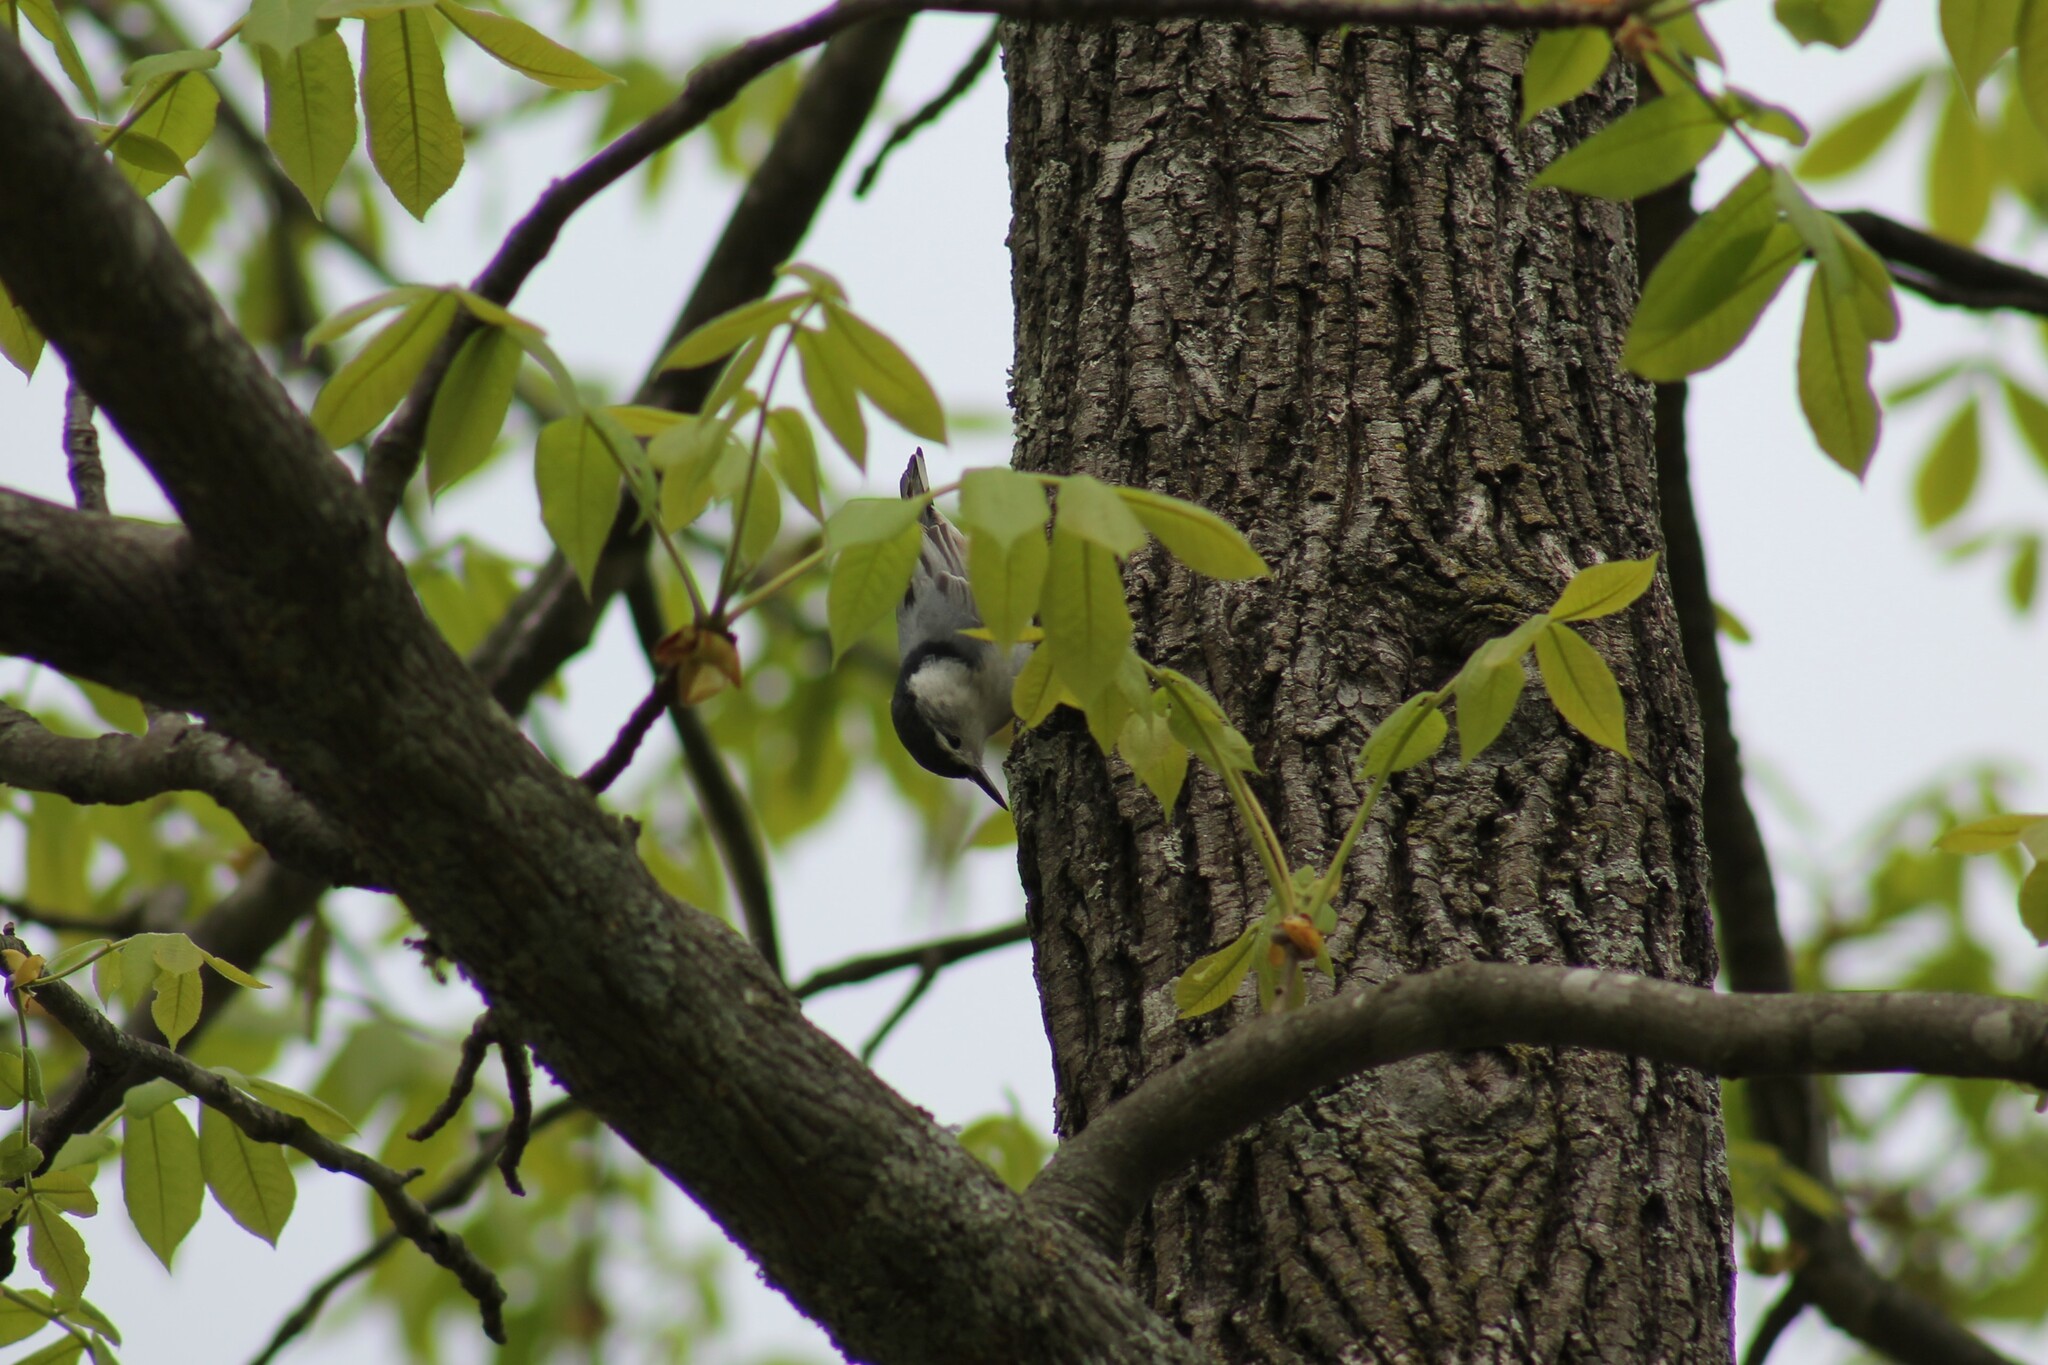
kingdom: Animalia
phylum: Chordata
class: Aves
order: Passeriformes
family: Sittidae
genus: Sitta
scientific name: Sitta carolinensis
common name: White-breasted nuthatch
